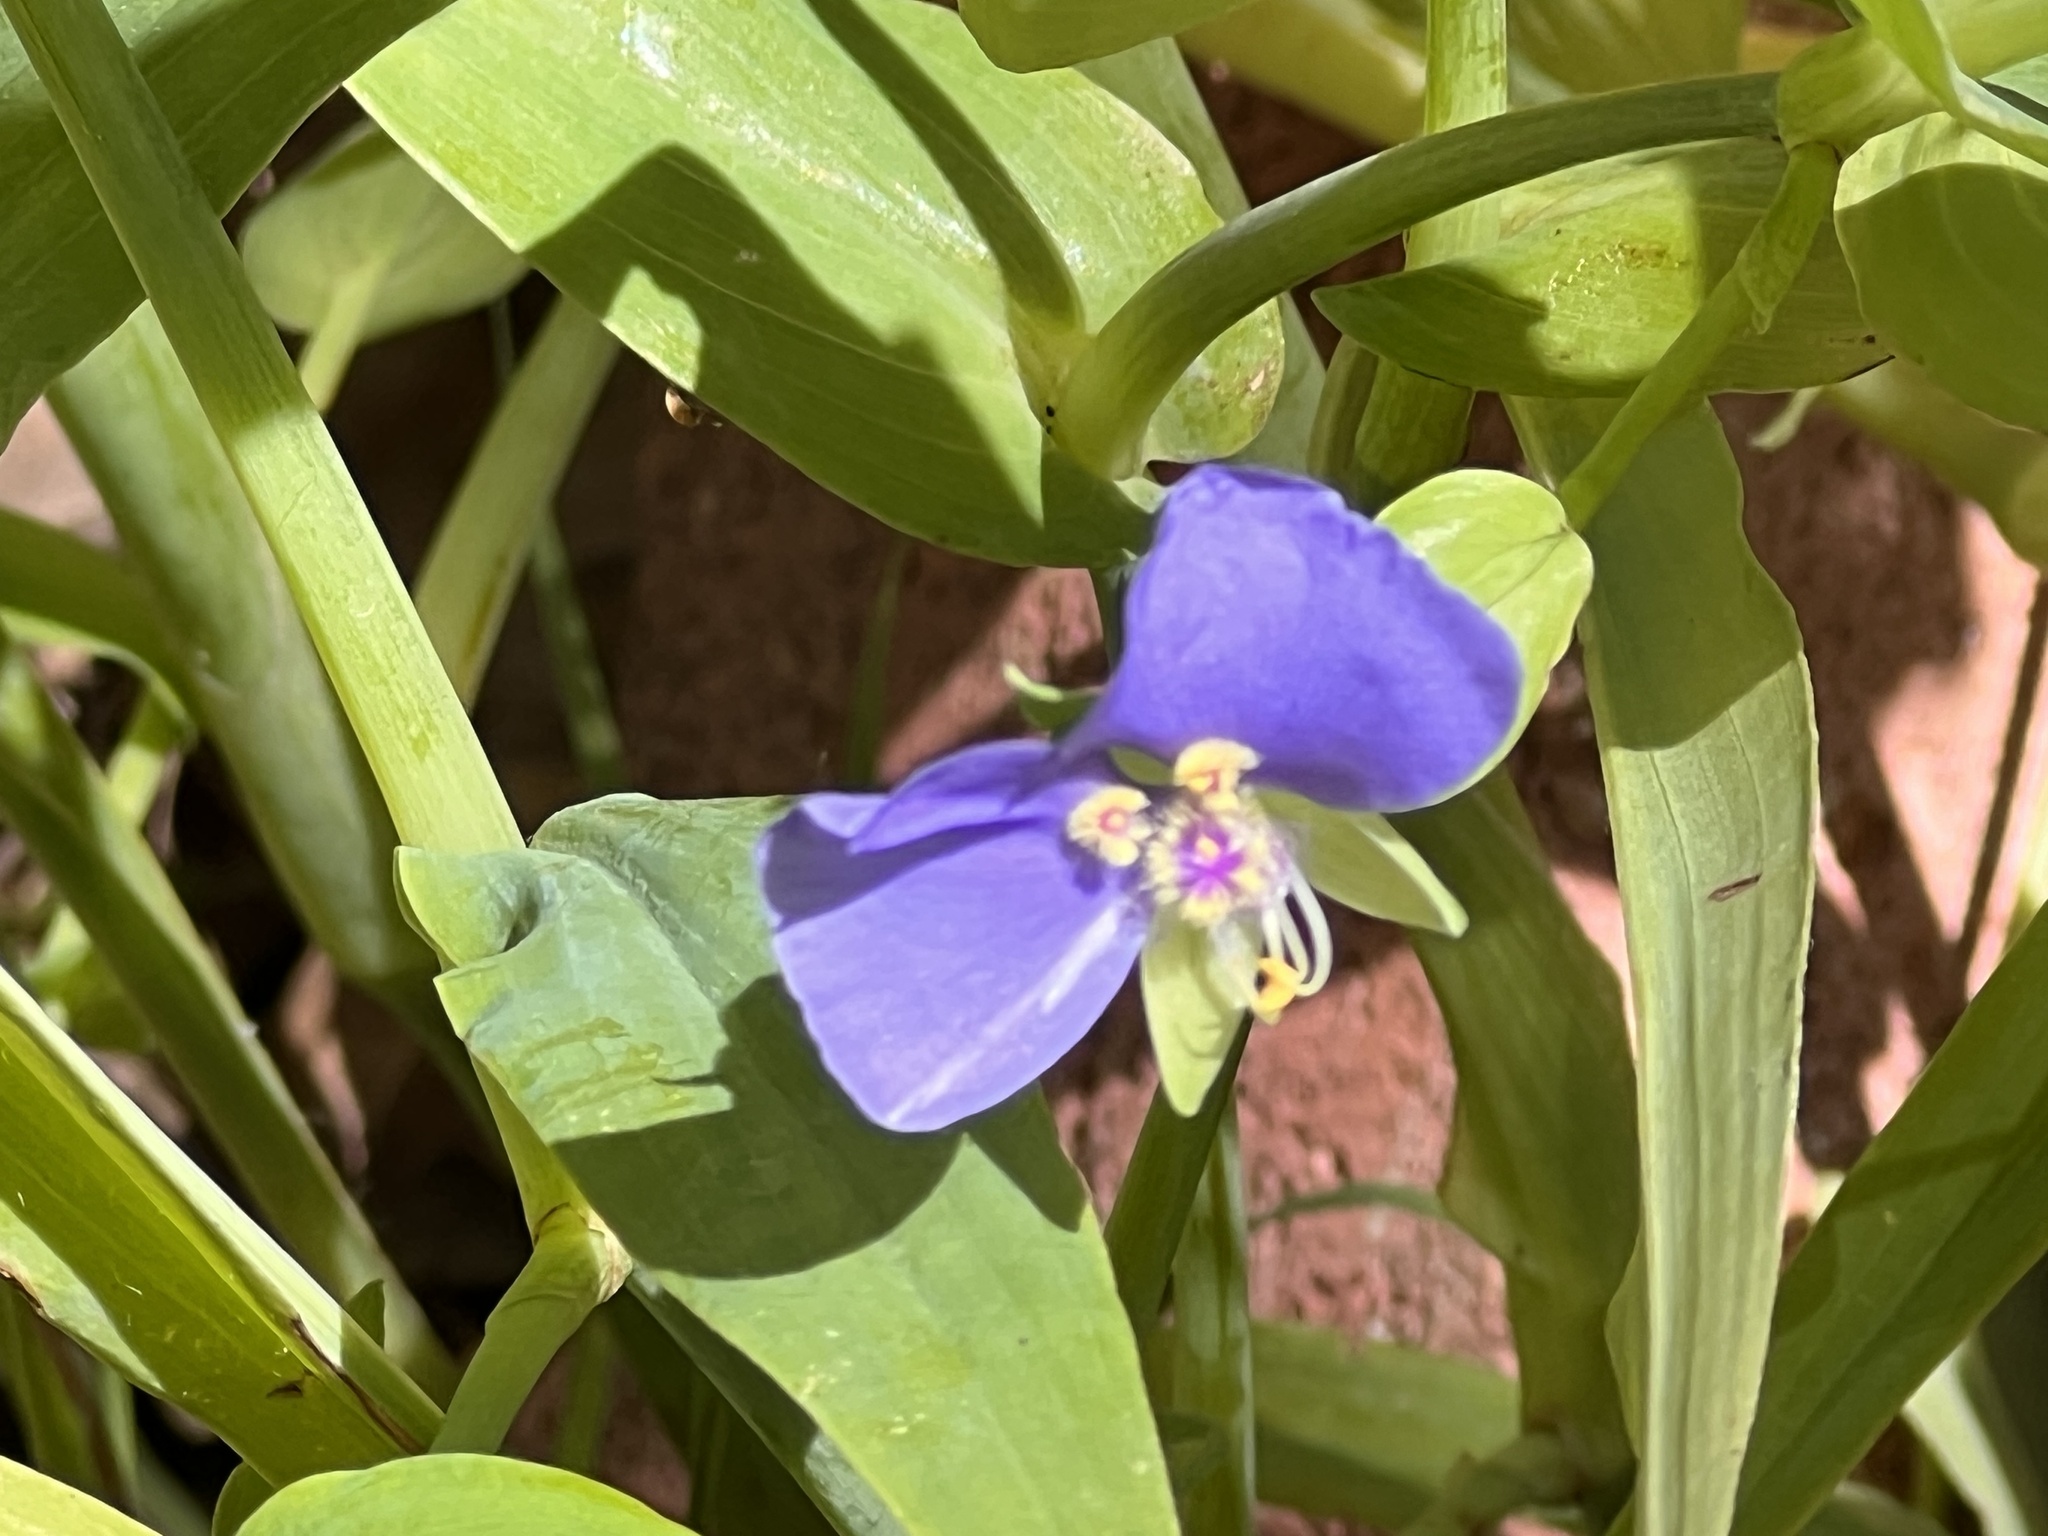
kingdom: Plantae
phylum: Tracheophyta
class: Liliopsida
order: Commelinales
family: Commelinaceae
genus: Tinantia
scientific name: Tinantia anomala
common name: False dayflower
